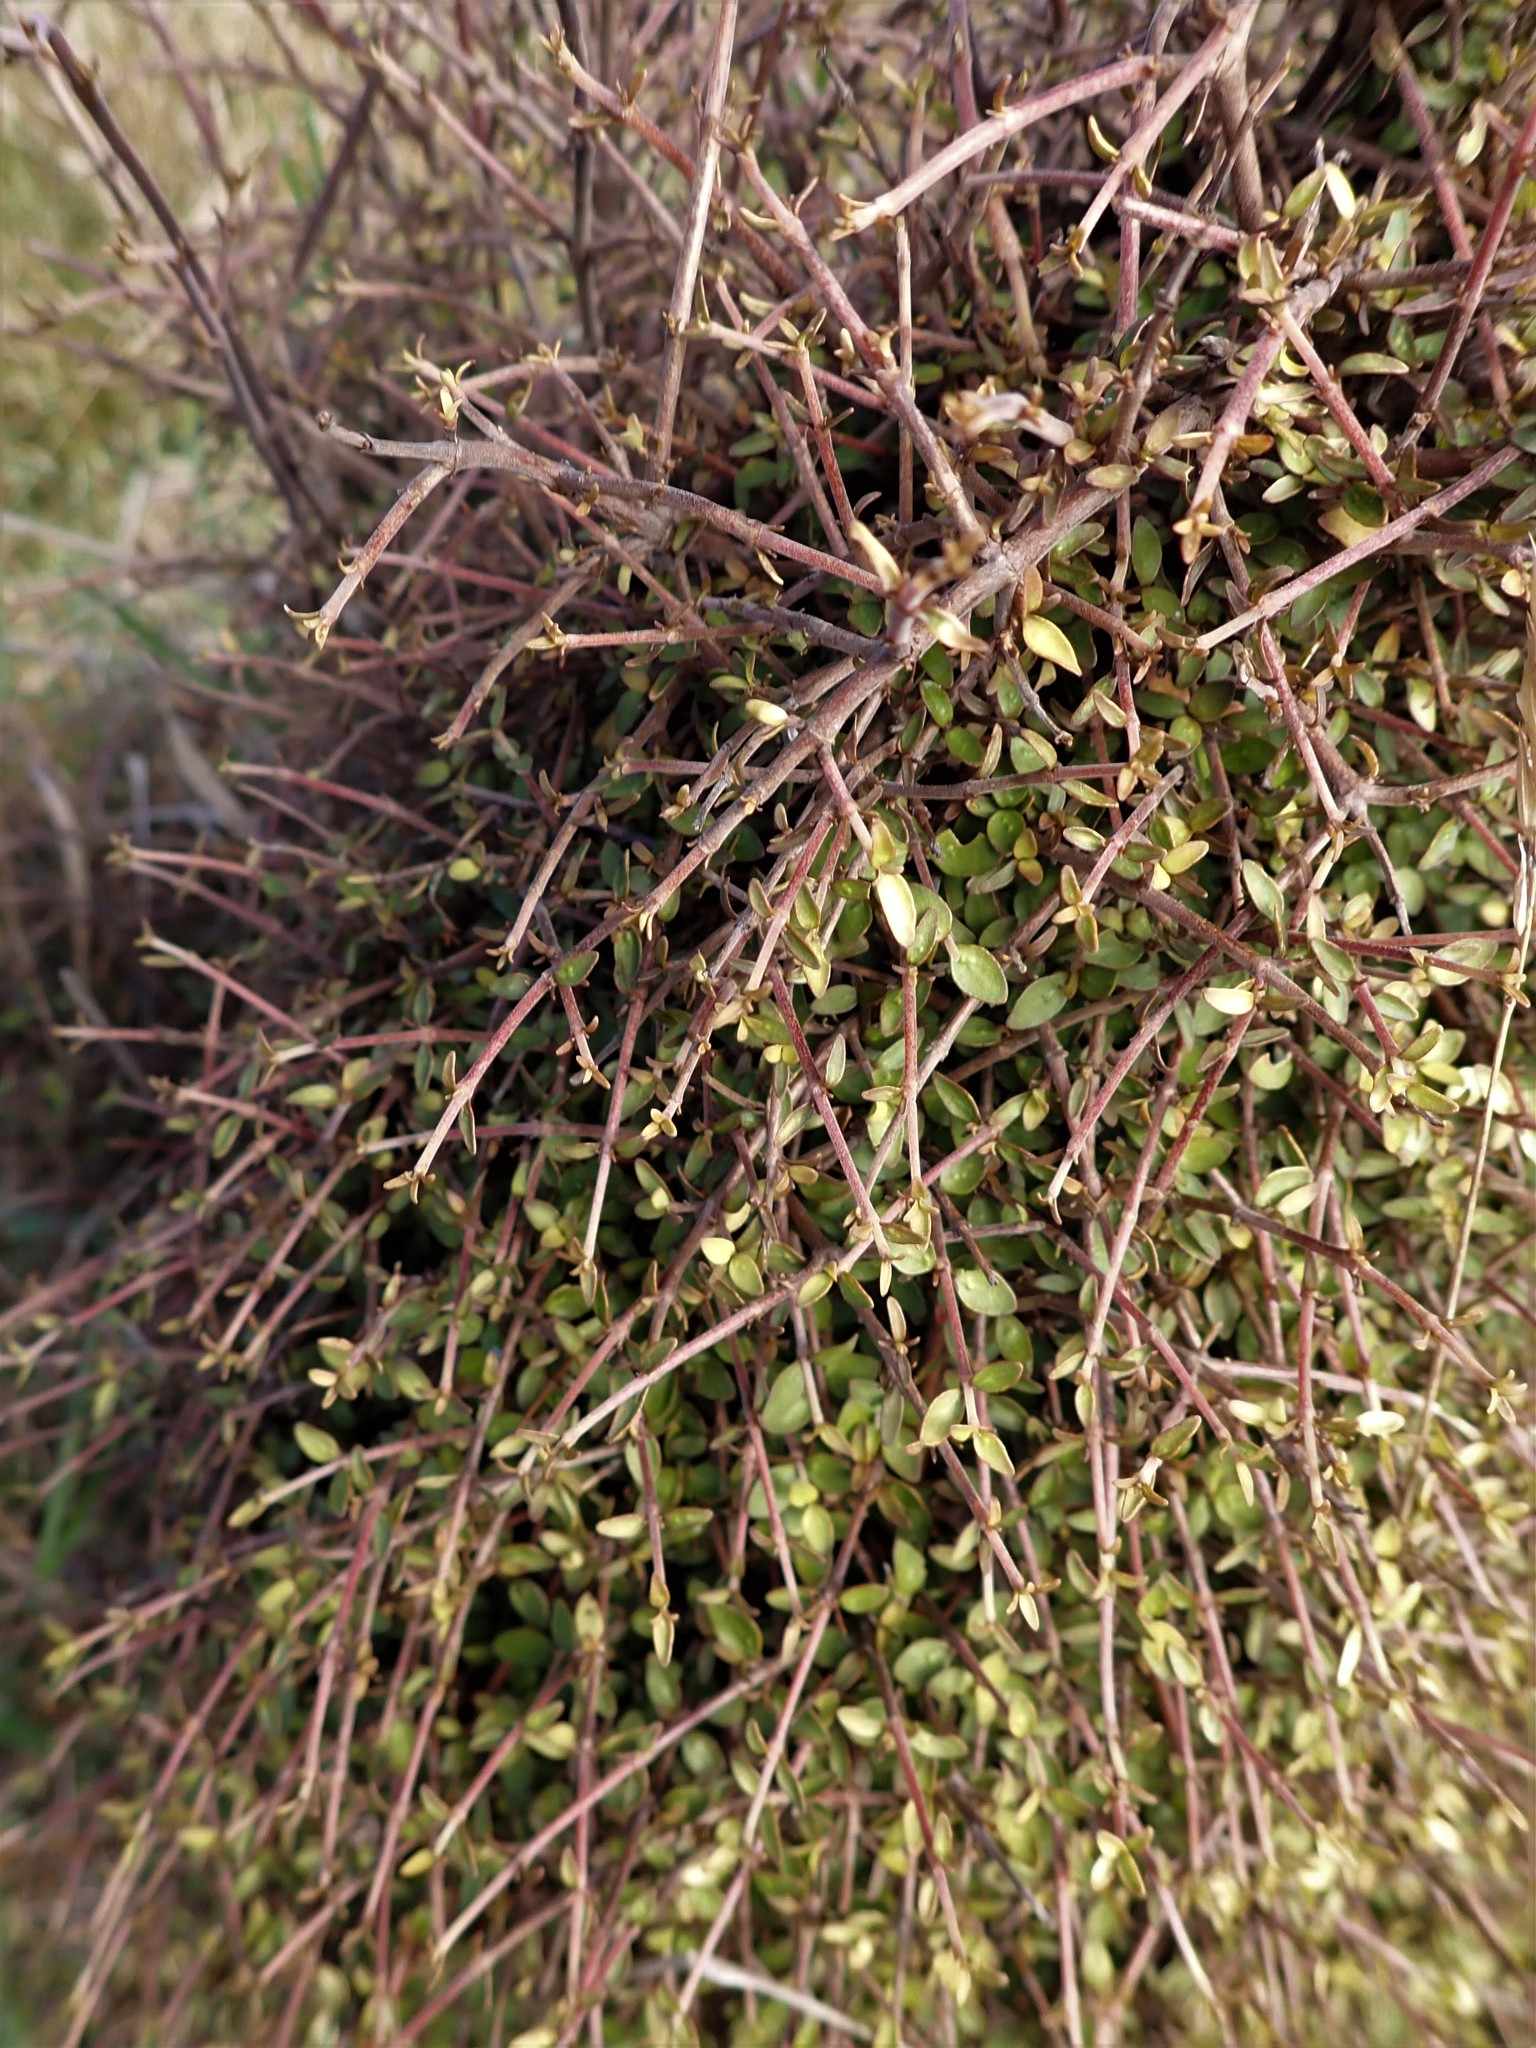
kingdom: Plantae
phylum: Tracheophyta
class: Magnoliopsida
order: Gentianales
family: Rubiaceae
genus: Coprosma
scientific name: Coprosma rhamnoides
